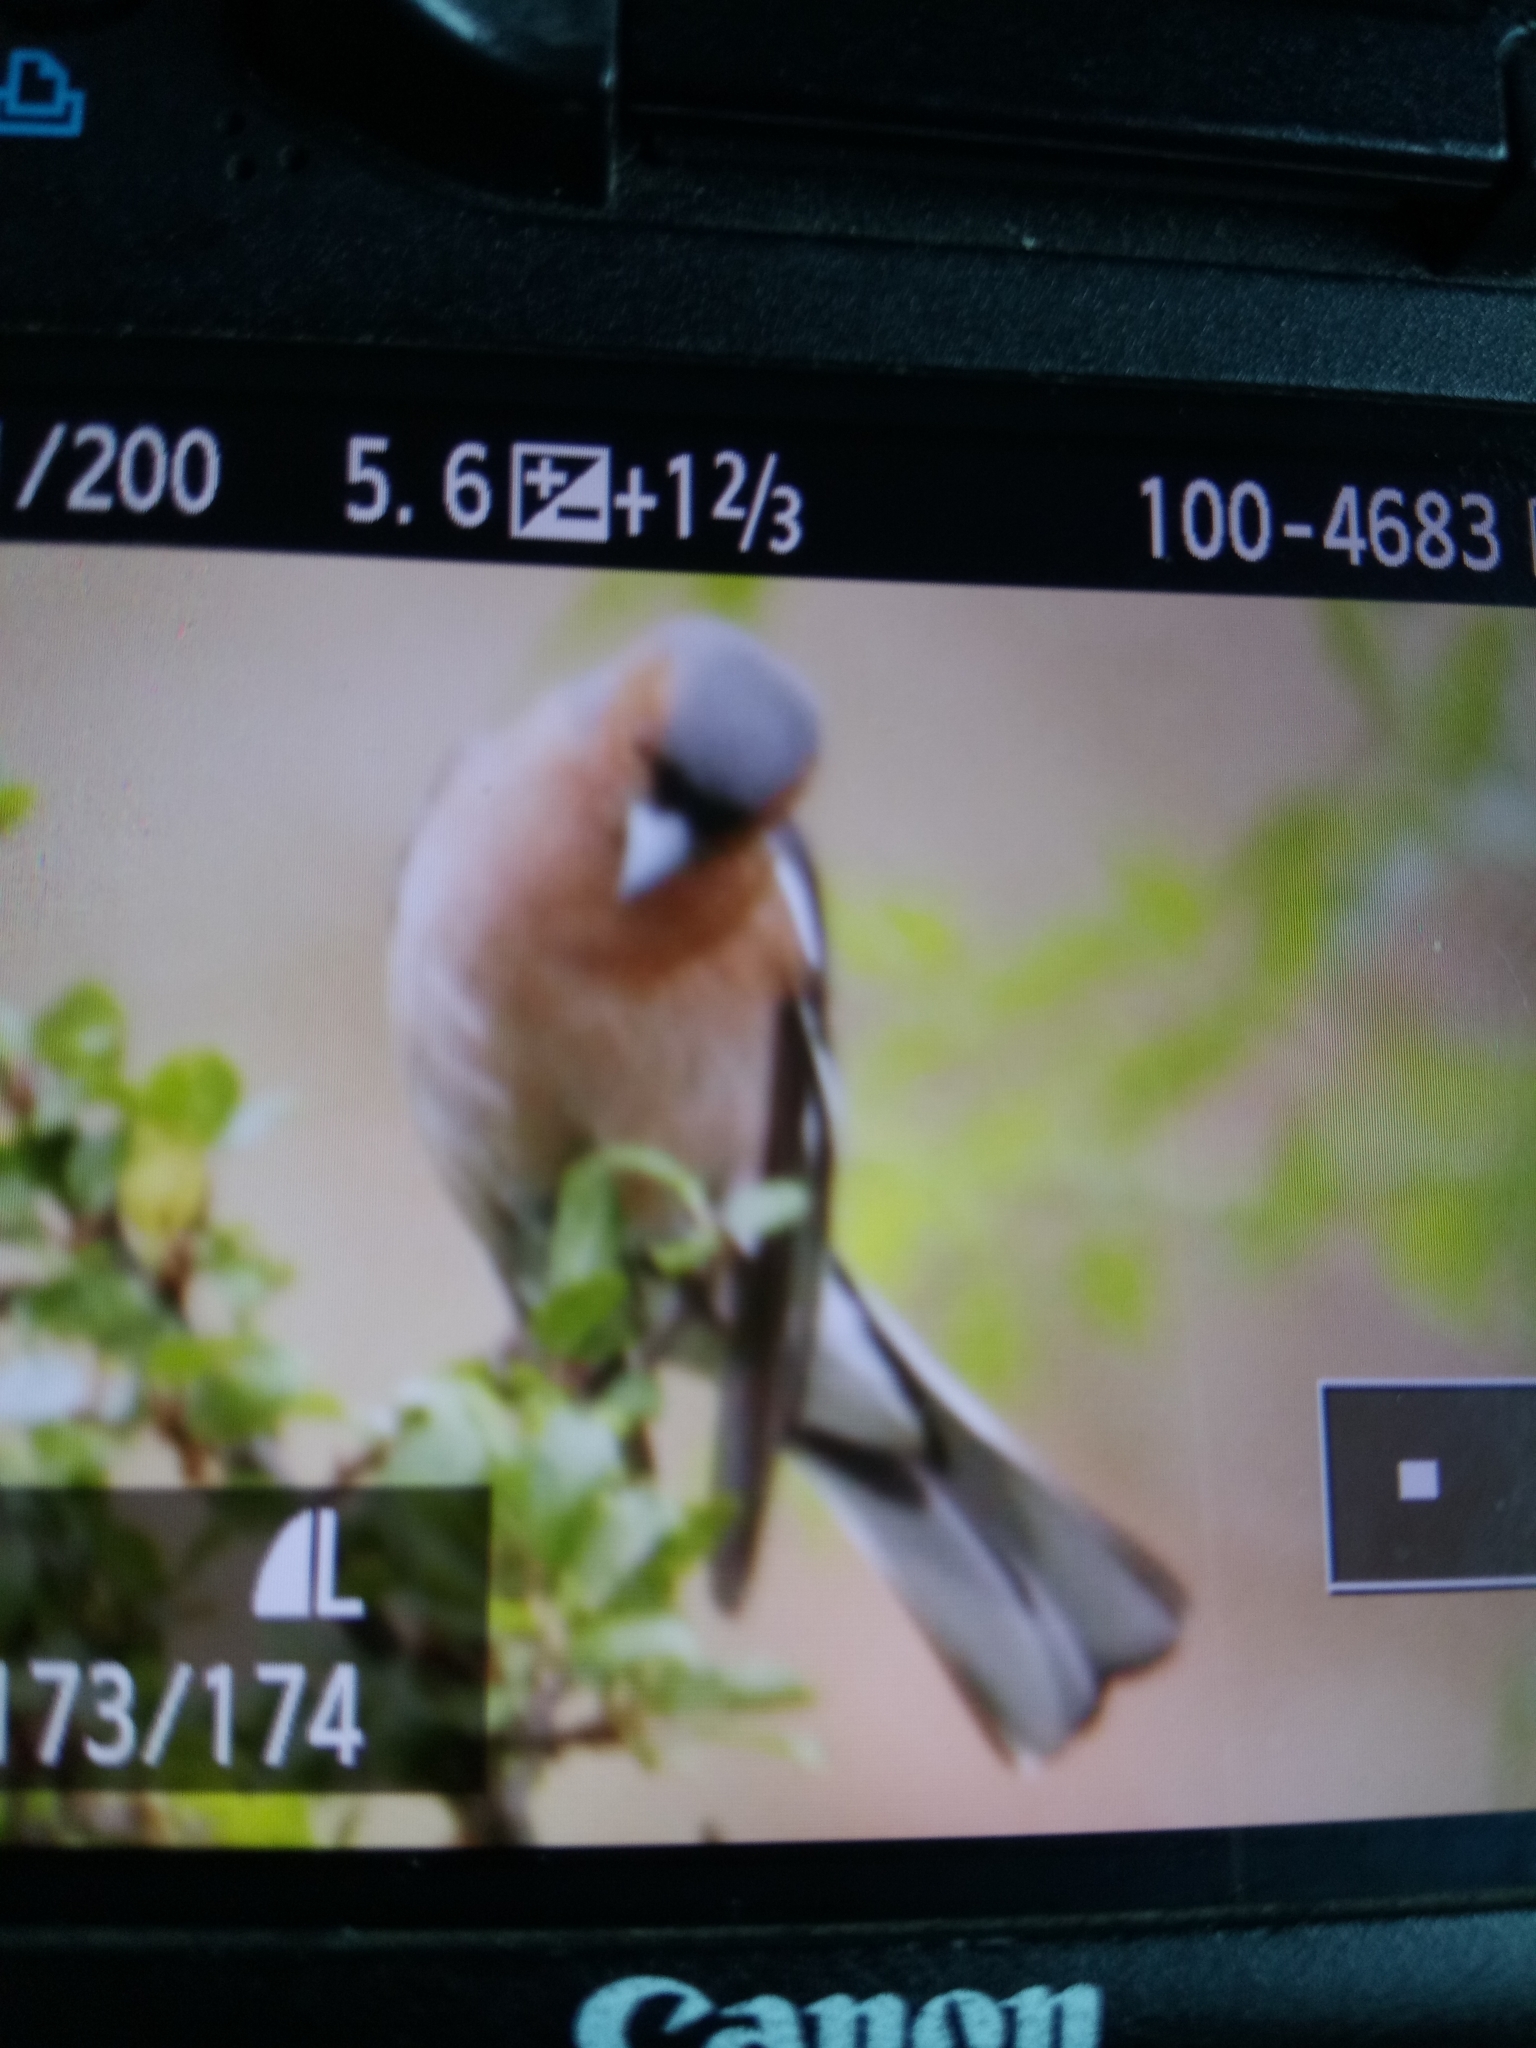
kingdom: Animalia
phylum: Chordata
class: Aves
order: Passeriformes
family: Fringillidae
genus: Fringilla
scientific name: Fringilla coelebs
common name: Common chaffinch
